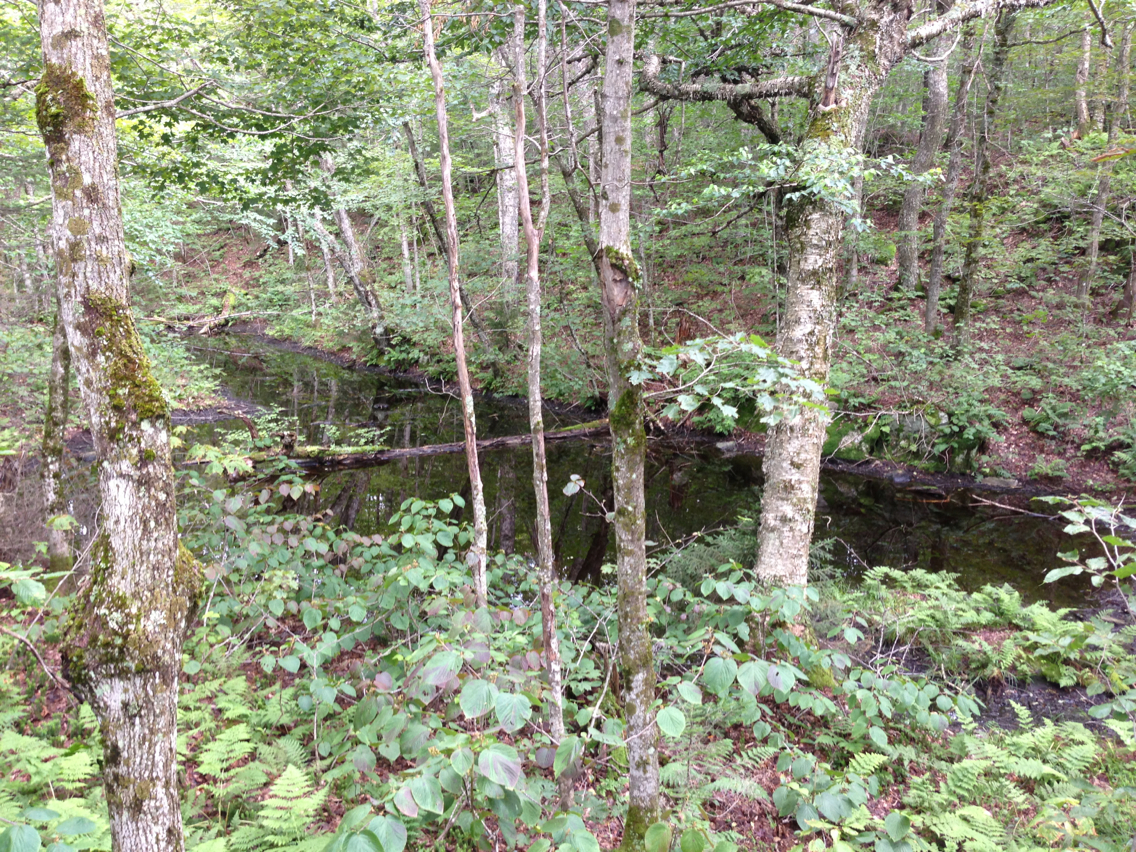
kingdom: Plantae
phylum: Tracheophyta
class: Magnoliopsida
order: Fagales
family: Betulaceae
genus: Betula
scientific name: Betula alleghaniensis
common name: Yellow birch
